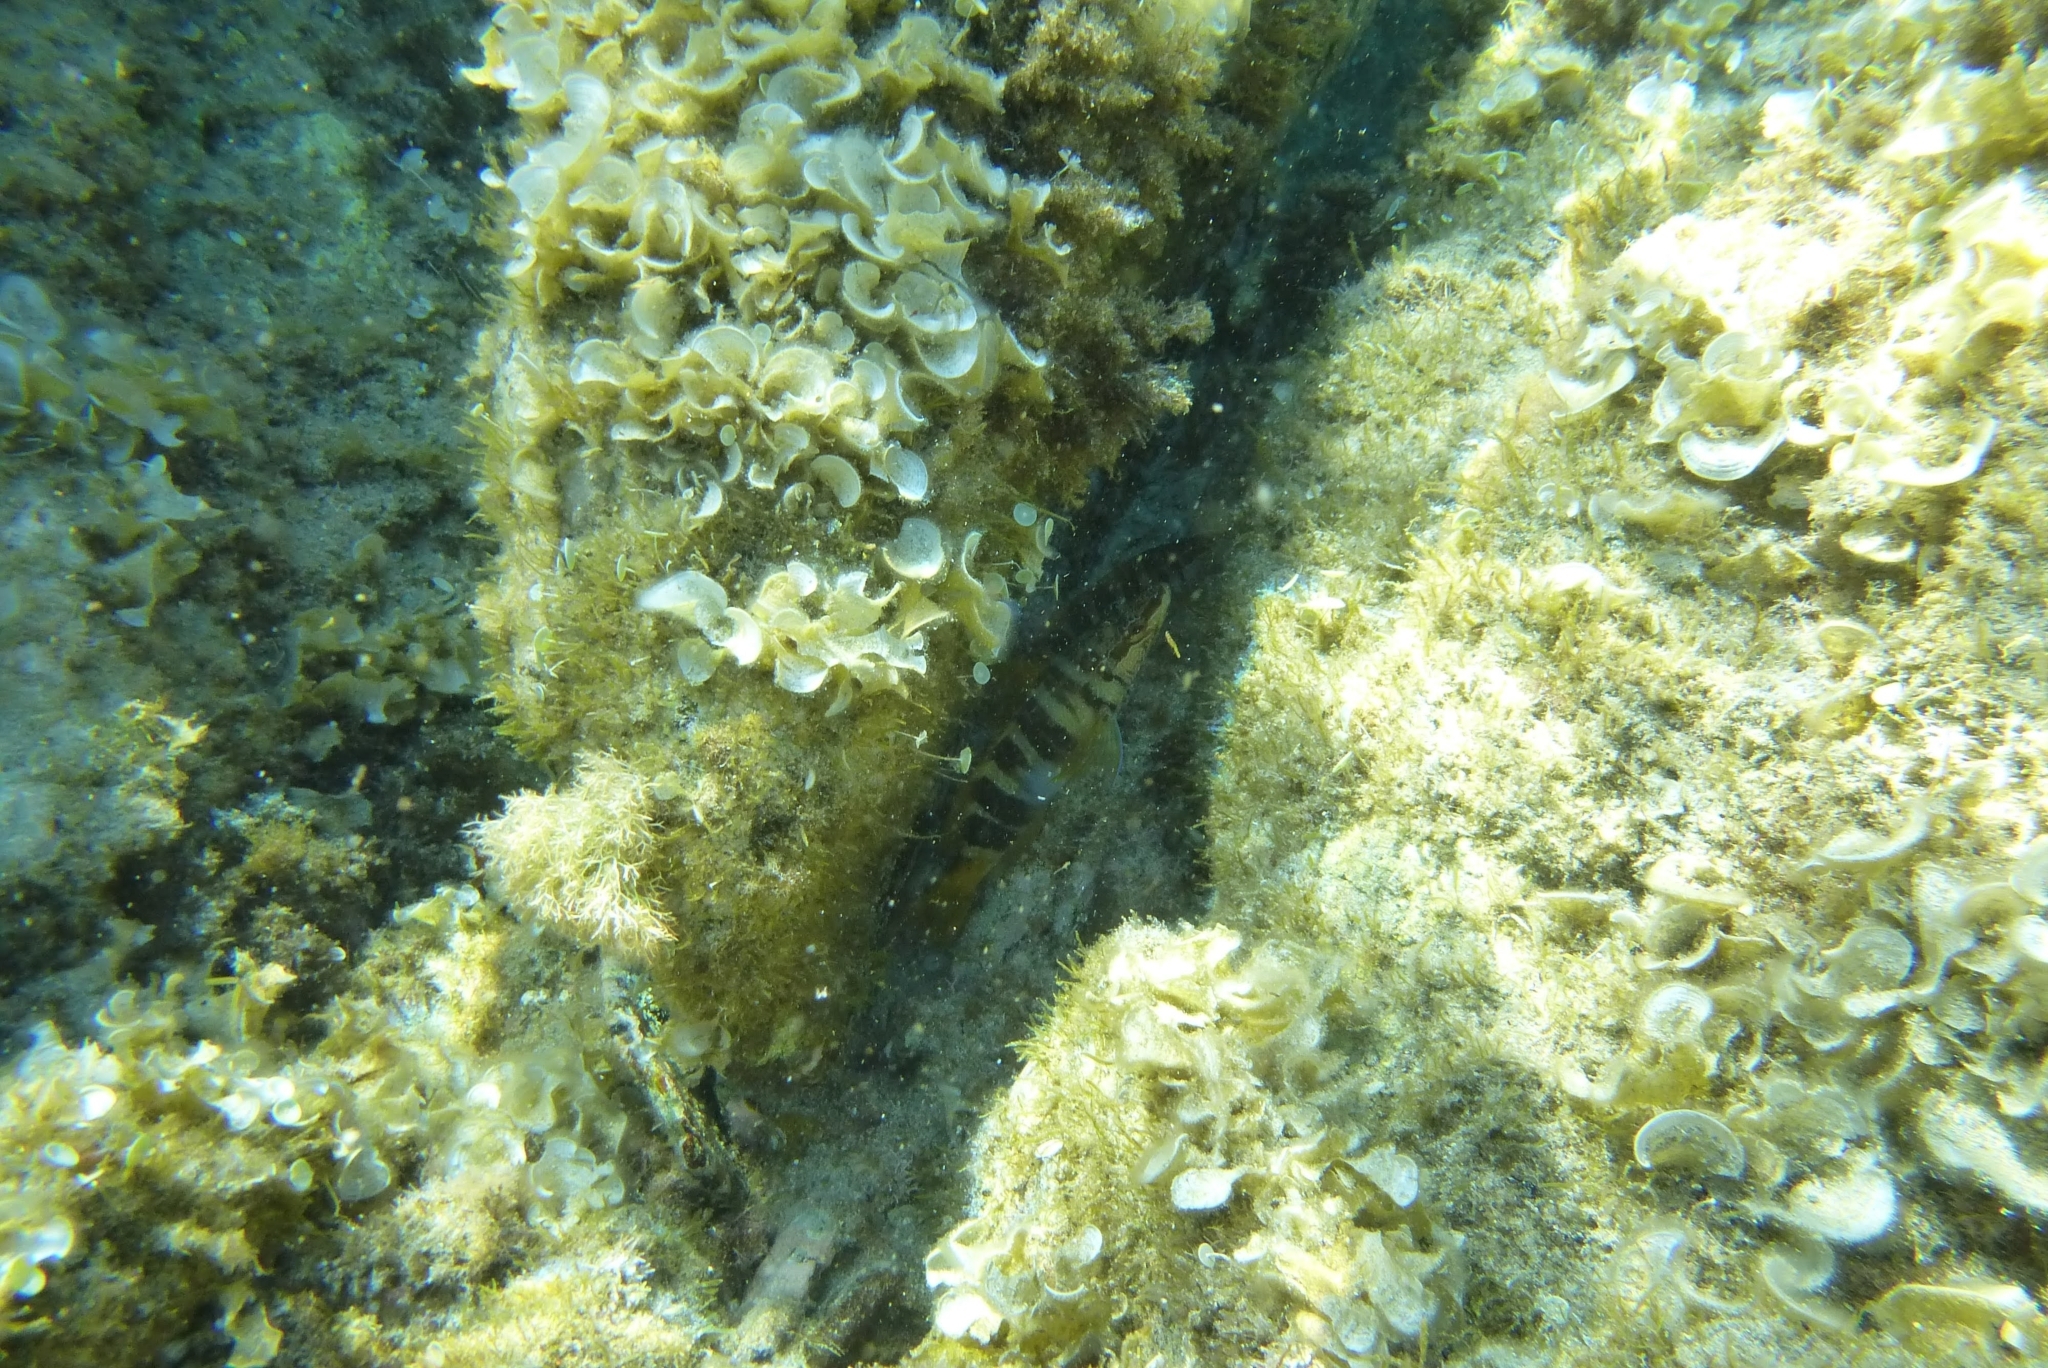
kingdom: Animalia
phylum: Chordata
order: Perciformes
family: Serranidae
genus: Serranus
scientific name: Serranus scriba
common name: Painted comber
